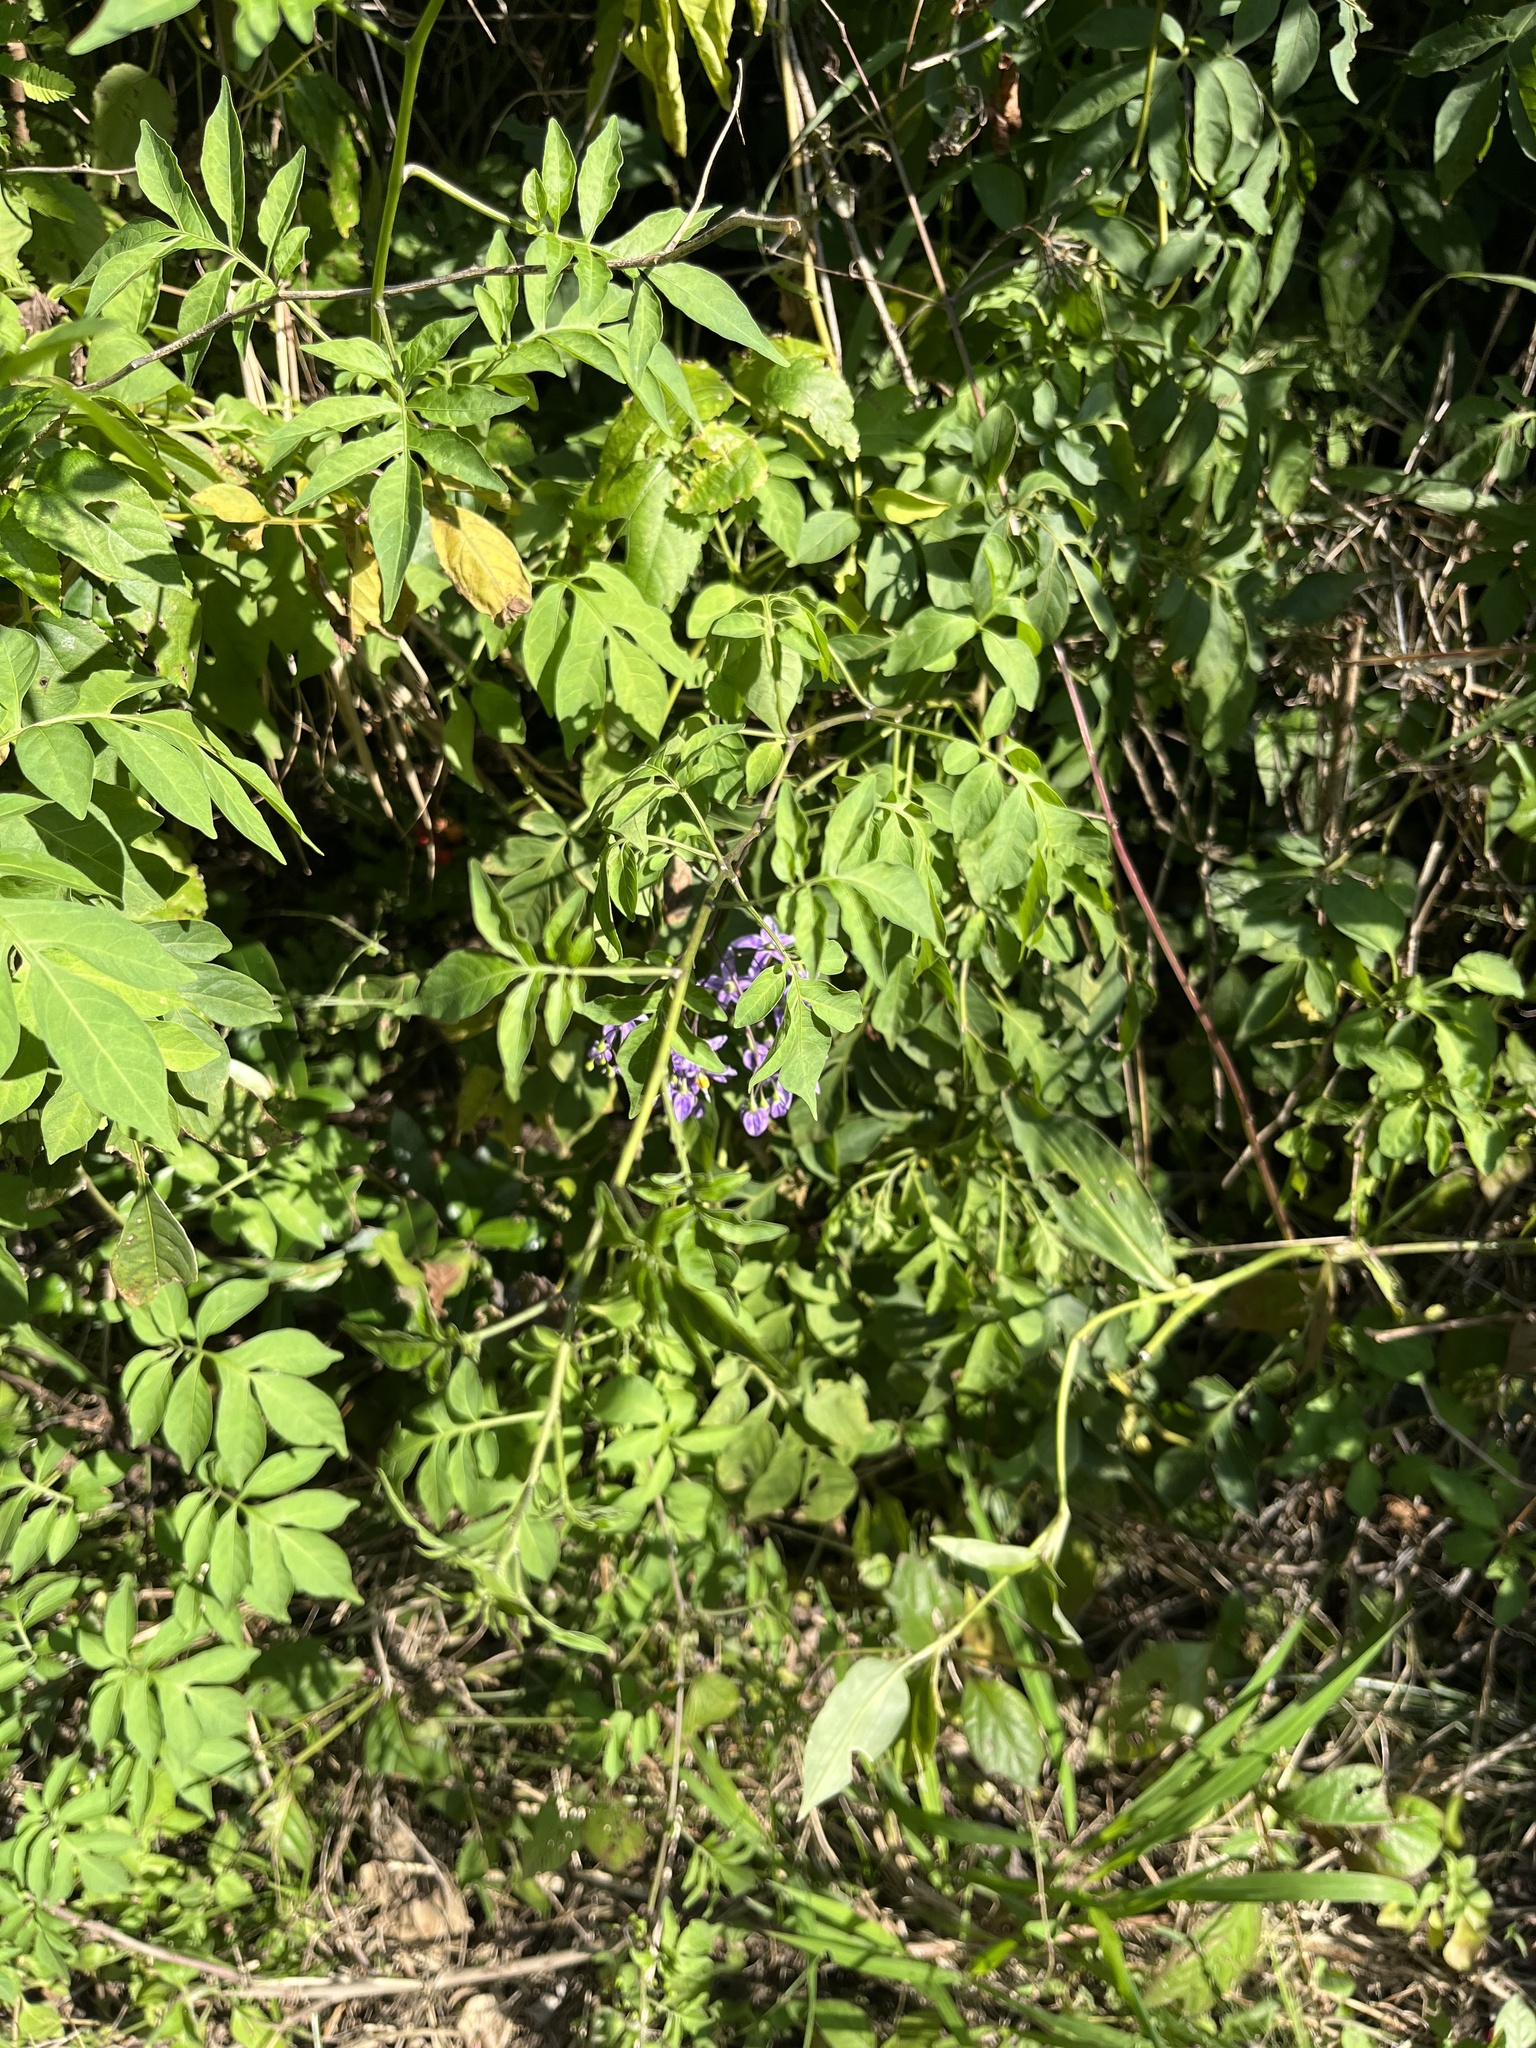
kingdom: Plantae
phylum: Tracheophyta
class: Magnoliopsida
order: Solanales
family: Solanaceae
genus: Solanum
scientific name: Solanum seaforthianum
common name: Brazilian nightshade
